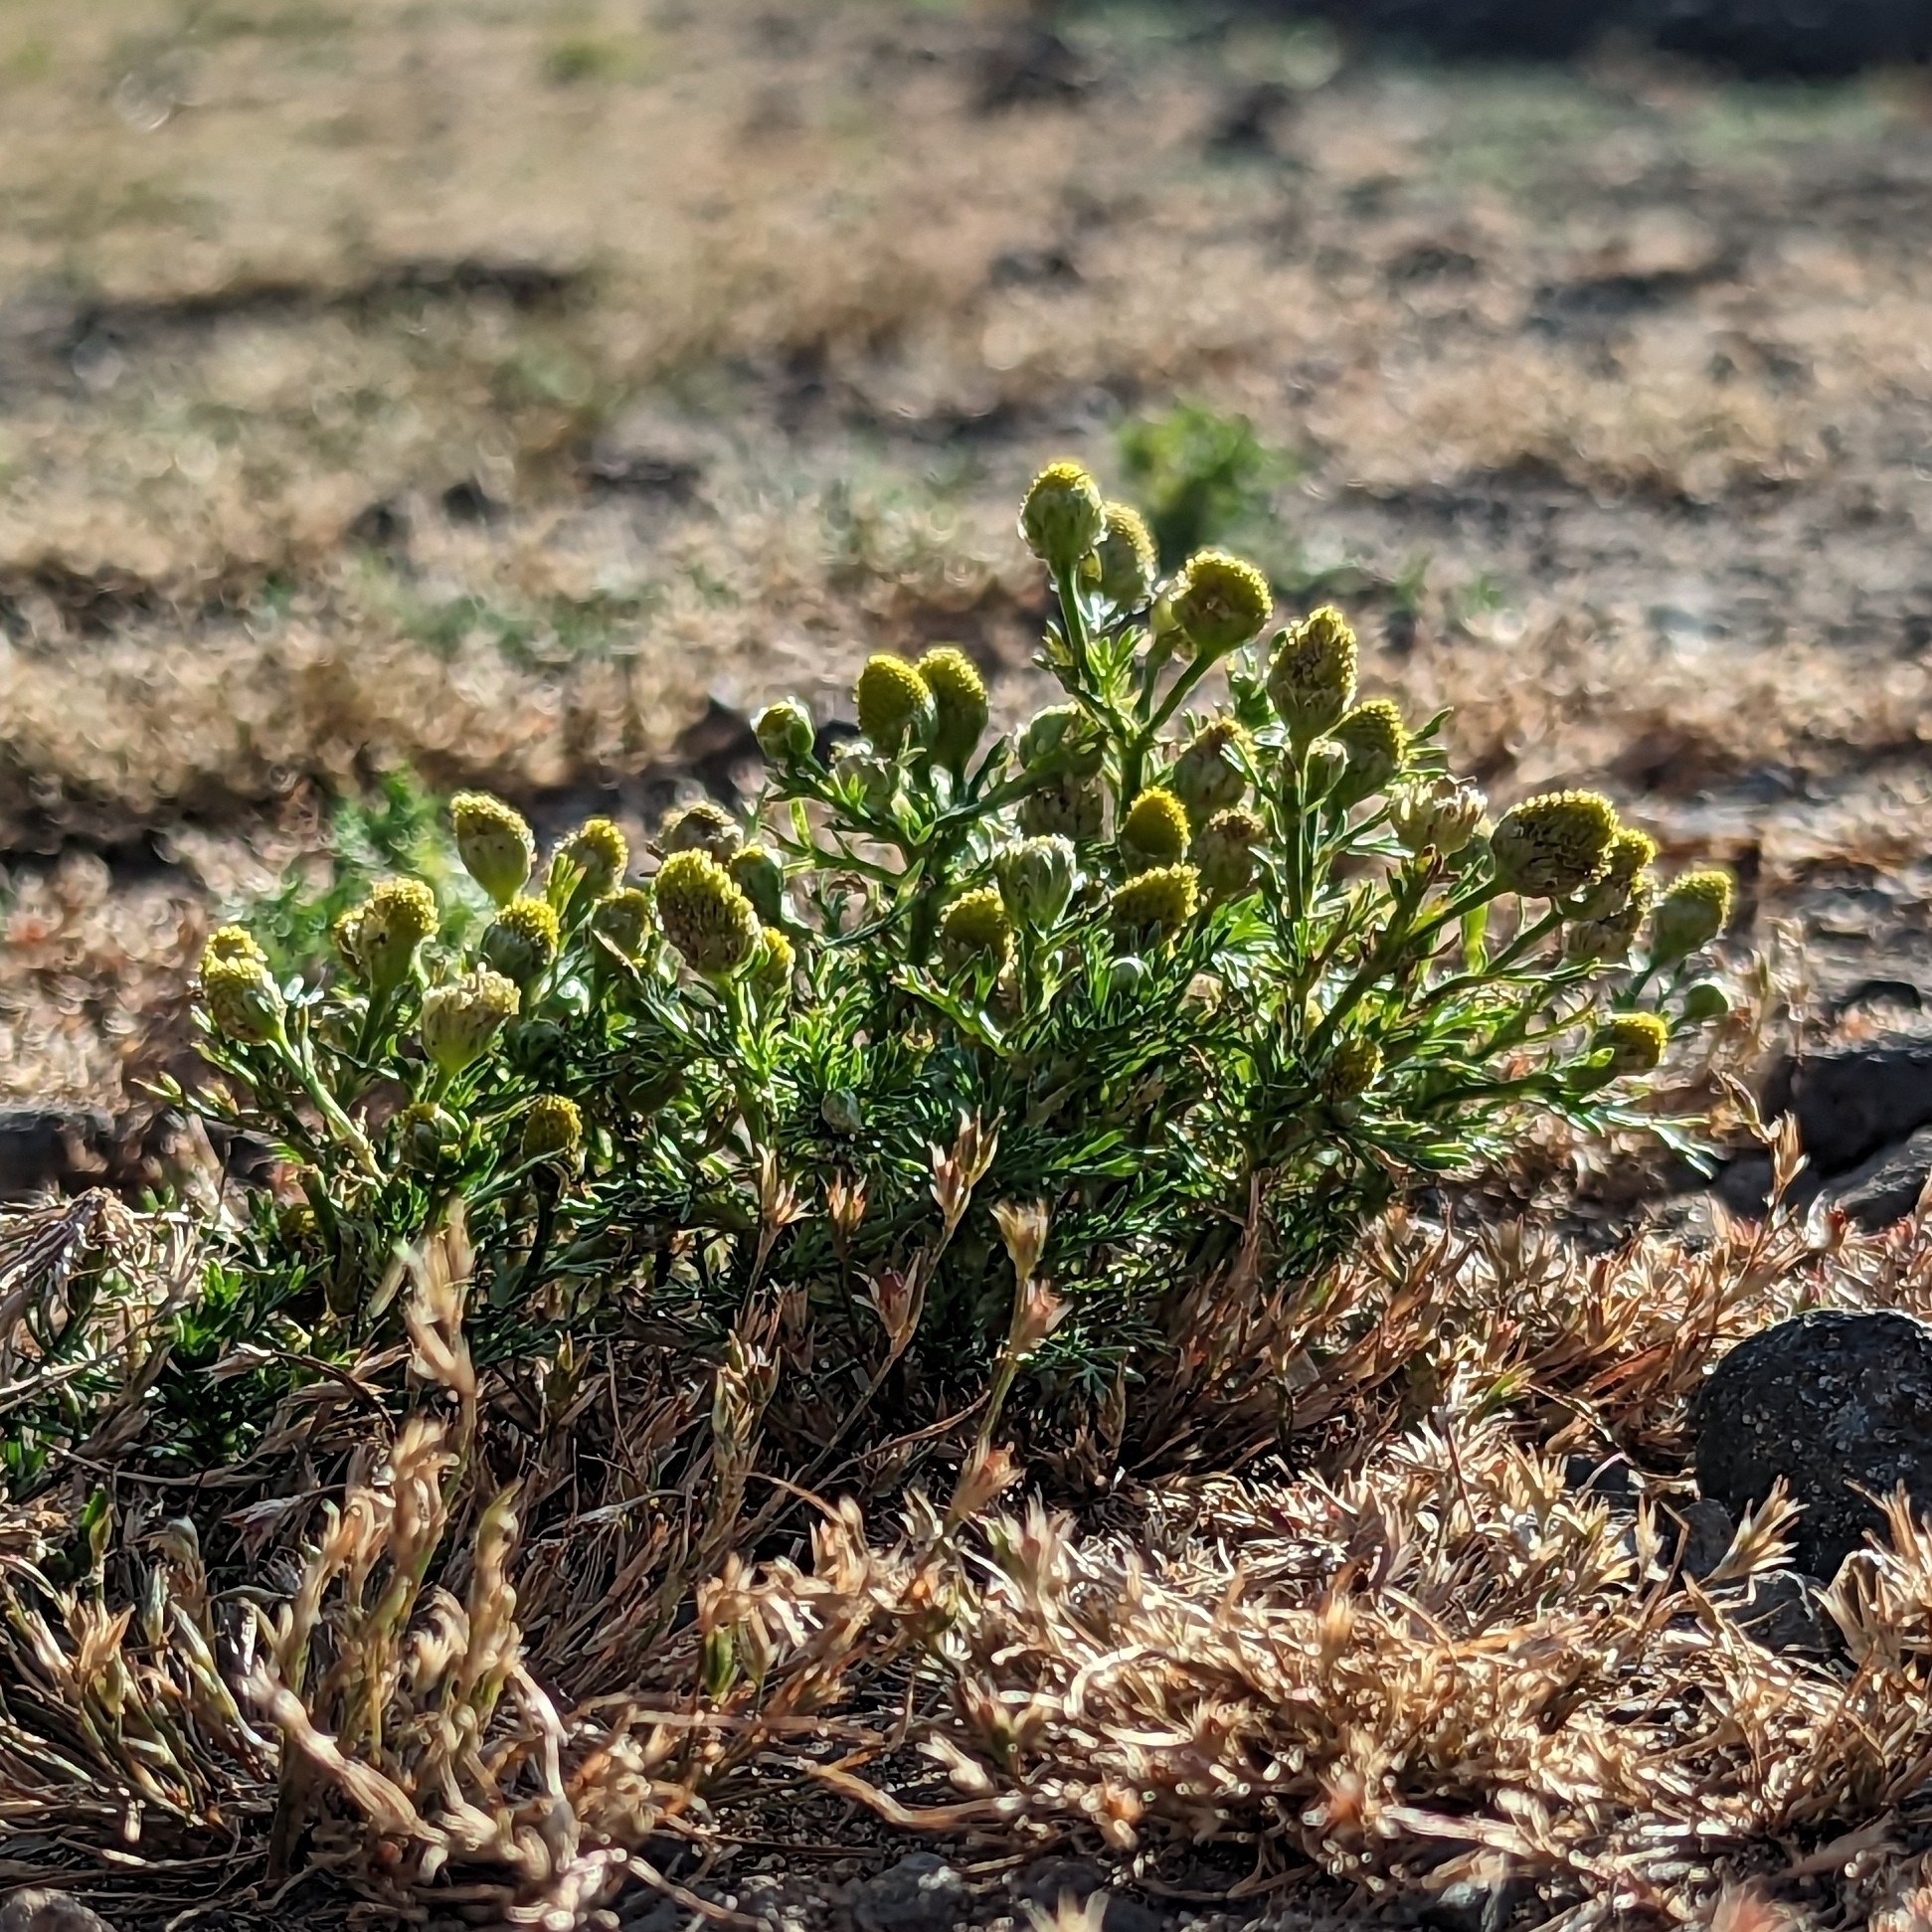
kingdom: Plantae
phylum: Tracheophyta
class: Magnoliopsida
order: Asterales
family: Asteraceae
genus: Matricaria
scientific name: Matricaria discoidea
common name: Disc mayweed
